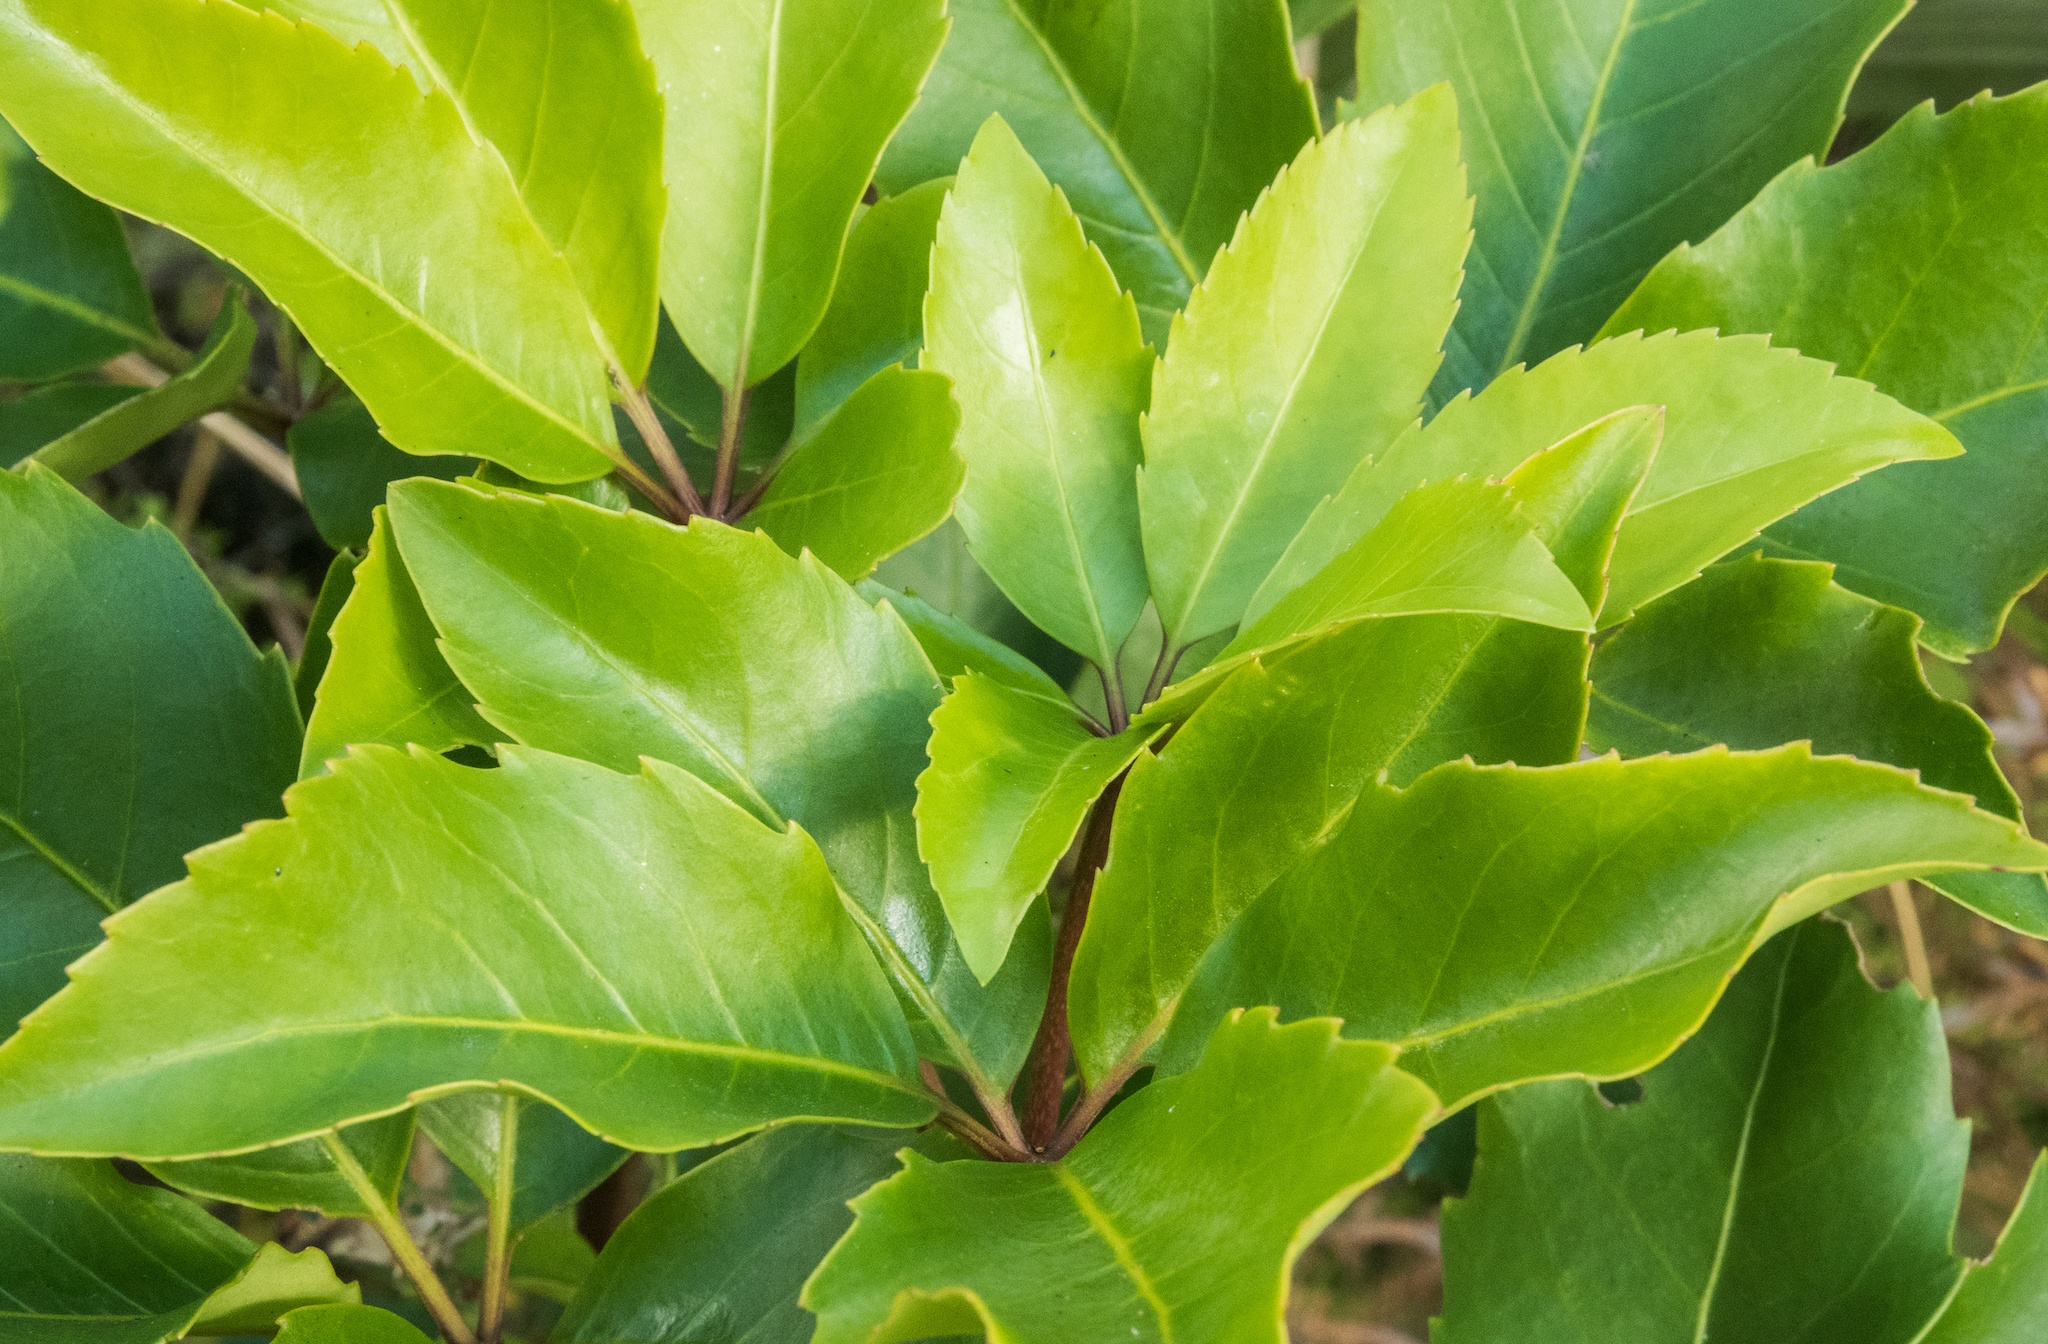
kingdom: Plantae
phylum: Tracheophyta
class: Magnoliopsida
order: Apiales
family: Araliaceae
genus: Neopanax
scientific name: Neopanax arboreus
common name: Five-fingers
